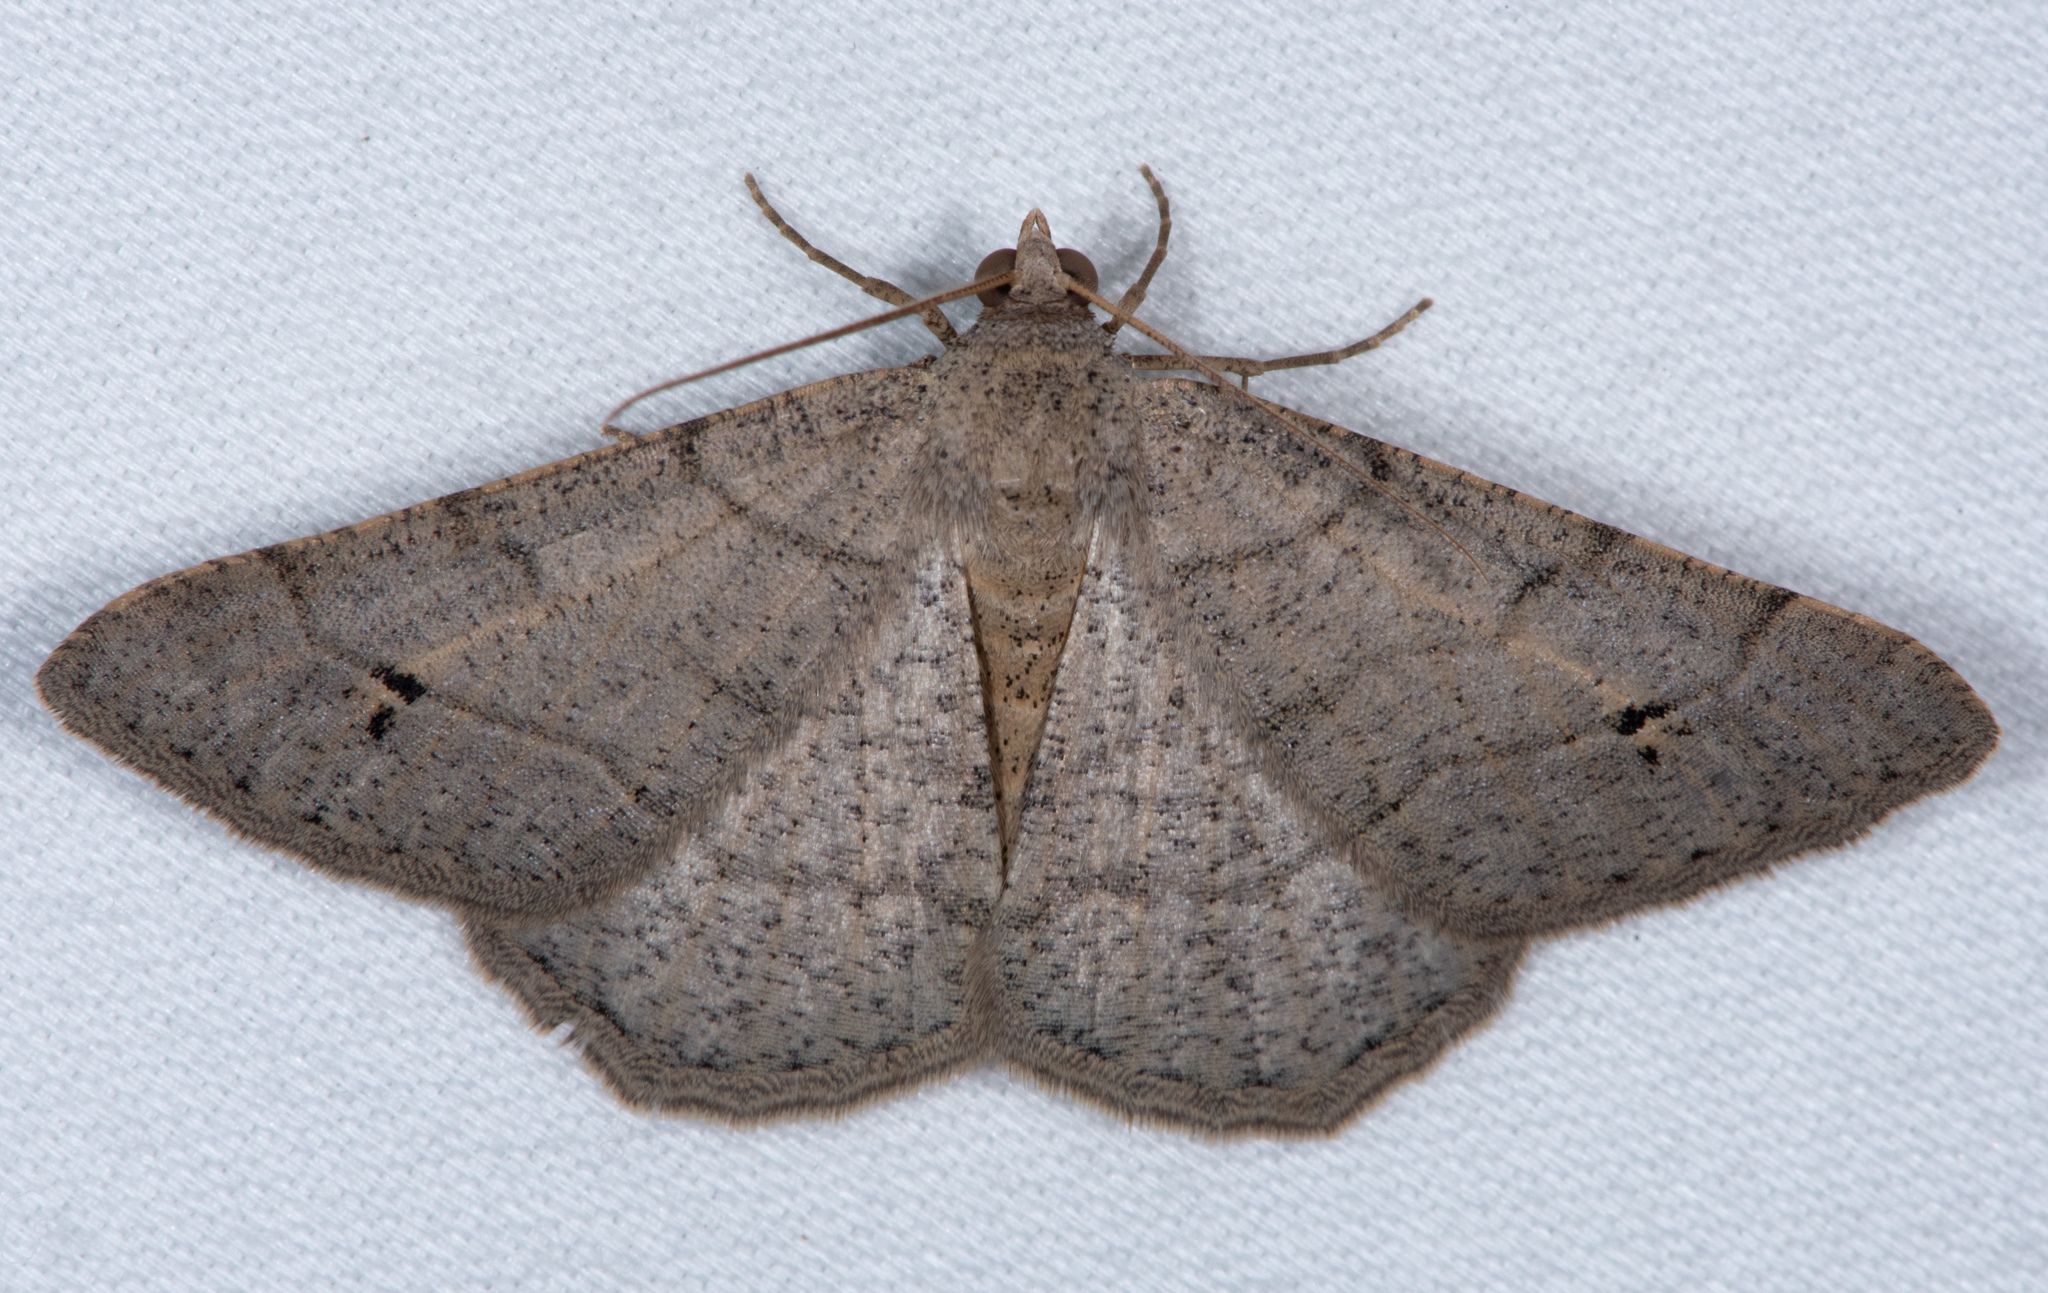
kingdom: Animalia
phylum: Arthropoda
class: Insecta
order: Lepidoptera
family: Geometridae
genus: Digrammia
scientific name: Digrammia muscariata
